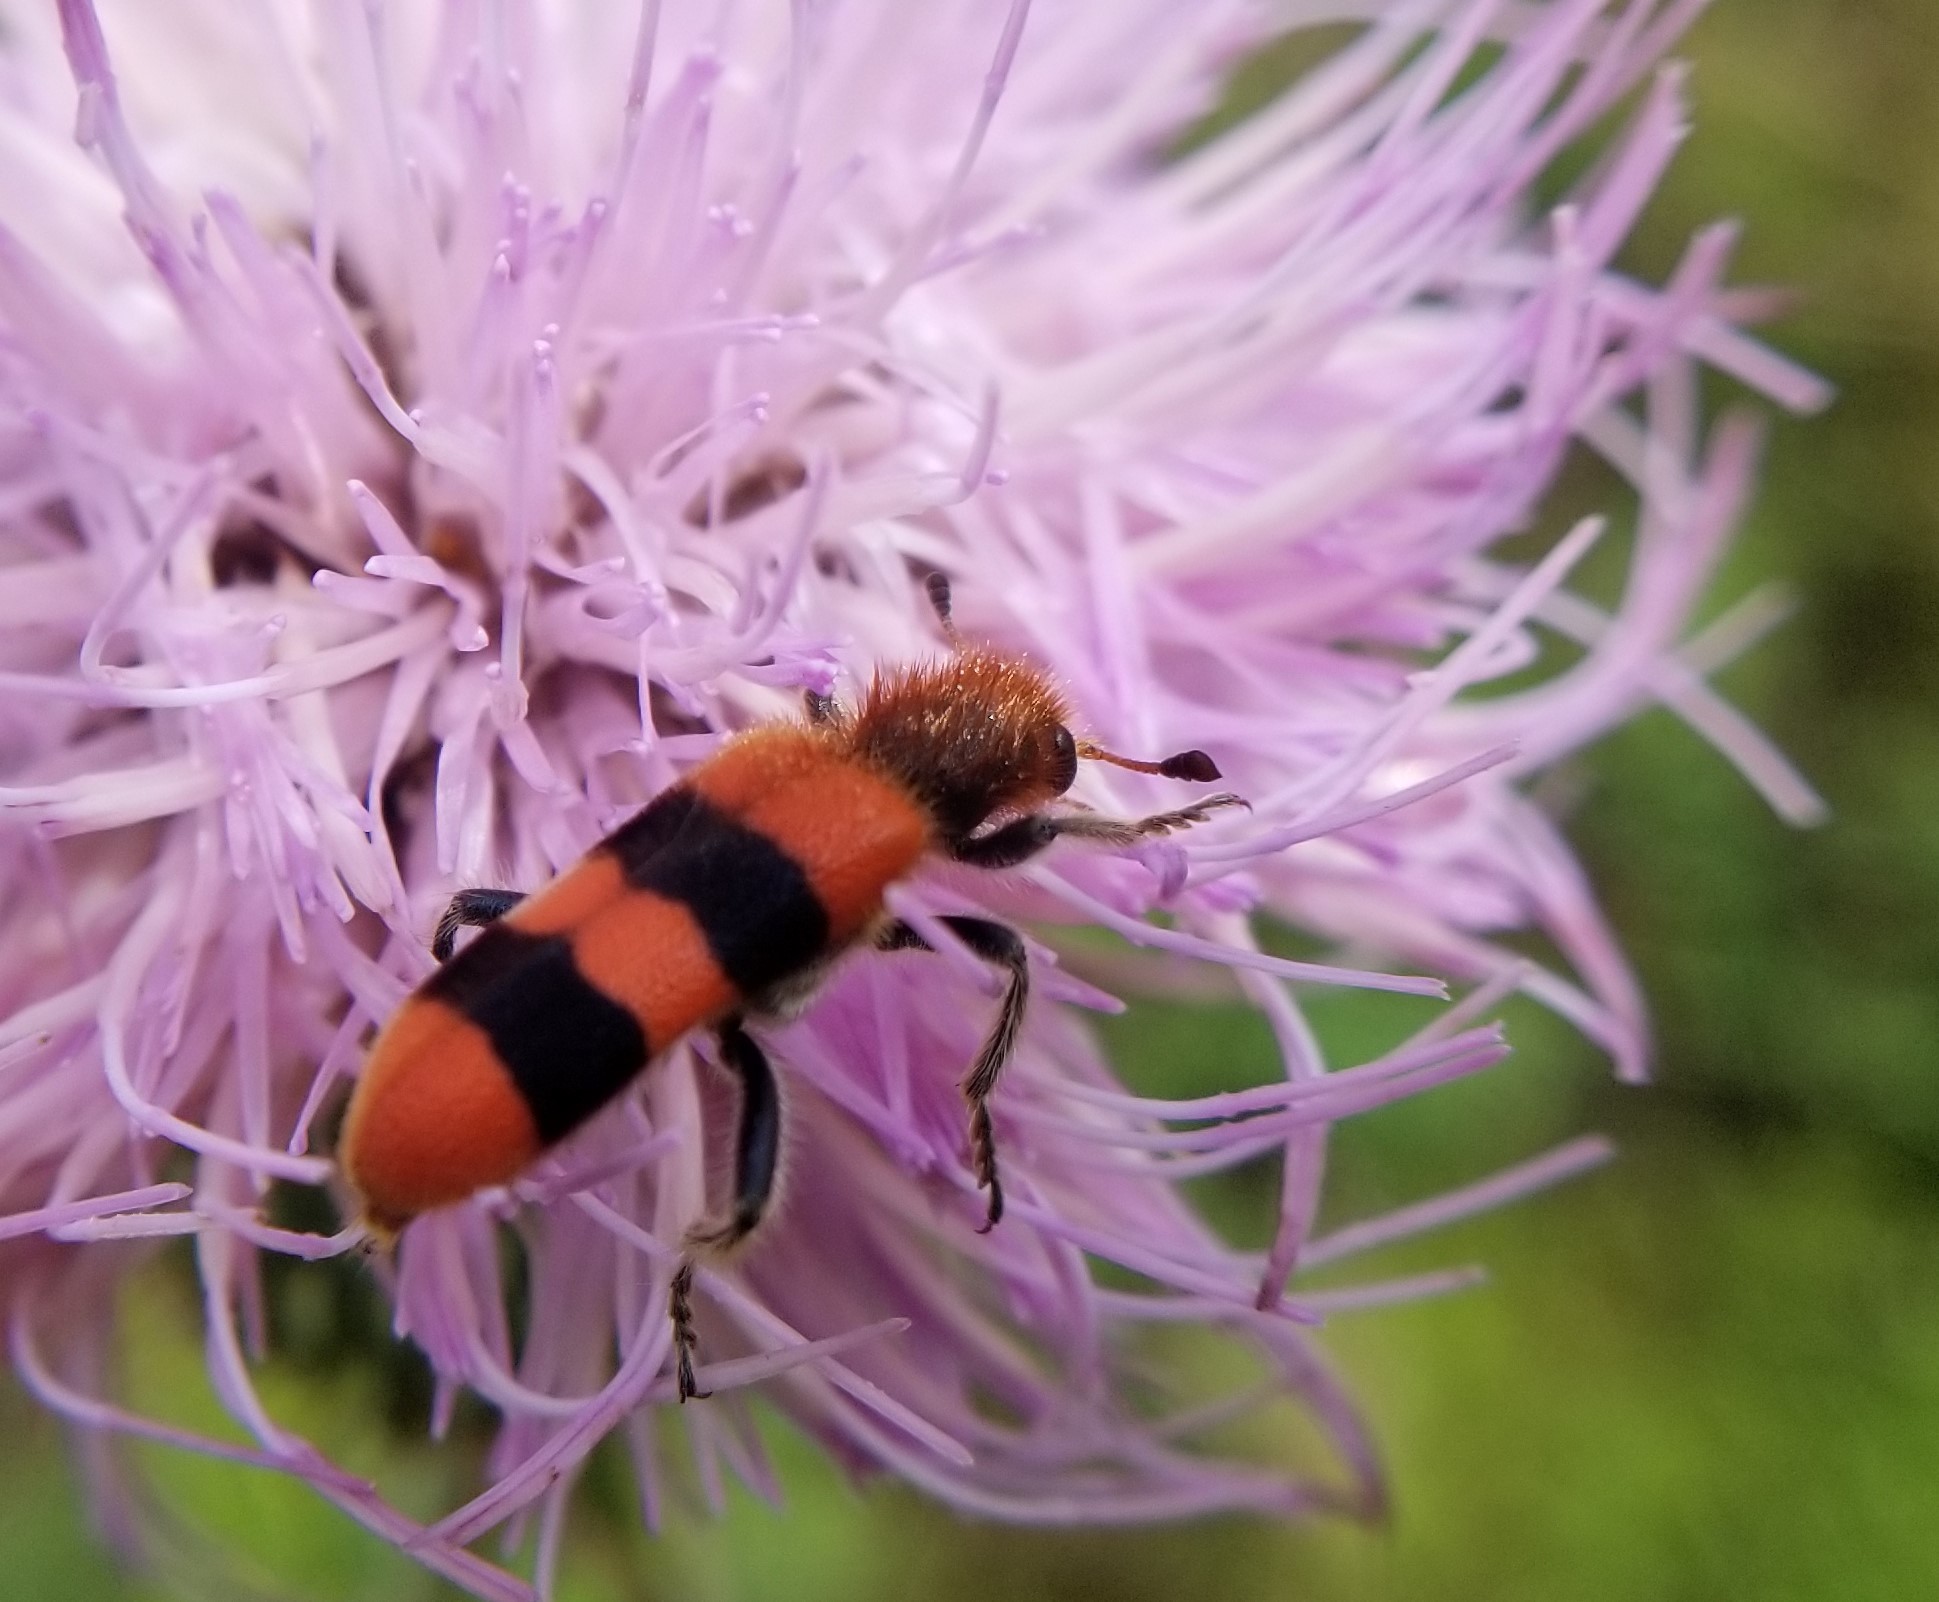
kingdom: Animalia
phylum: Arthropoda
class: Insecta
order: Coleoptera
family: Cleridae
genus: Trichodes
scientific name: Trichodes bibalteatus
